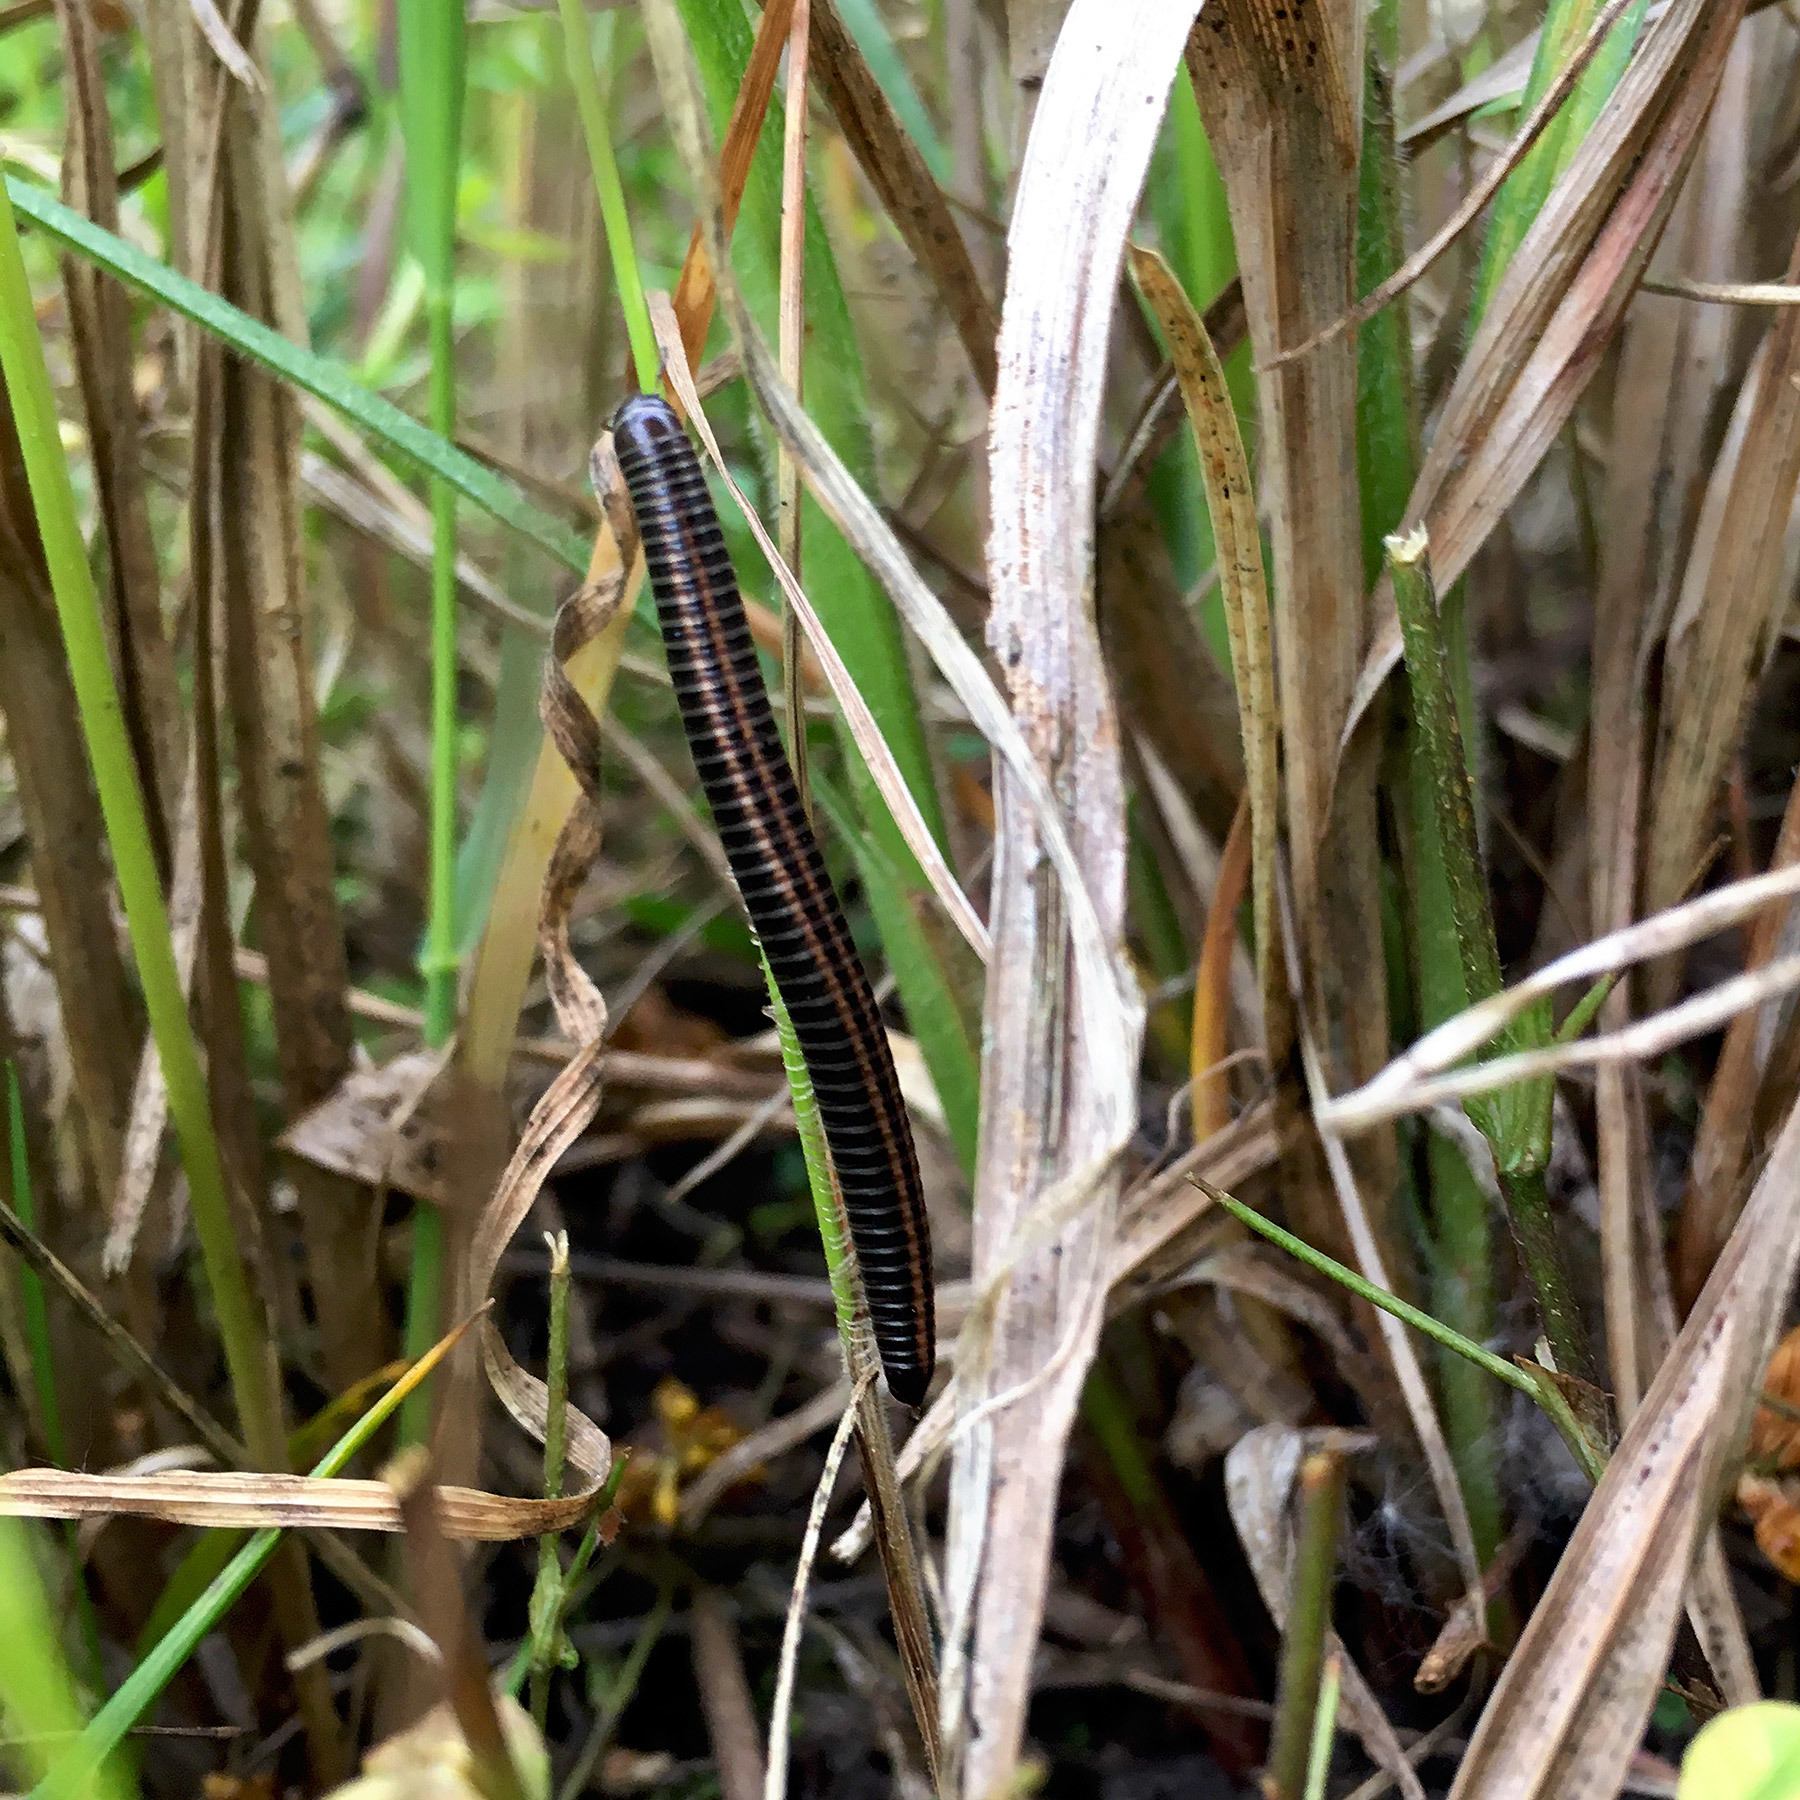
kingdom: Animalia
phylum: Arthropoda
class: Diplopoda
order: Julida
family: Julidae
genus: Ommatoiulus
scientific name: Ommatoiulus sabulosus
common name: Striped millipede
